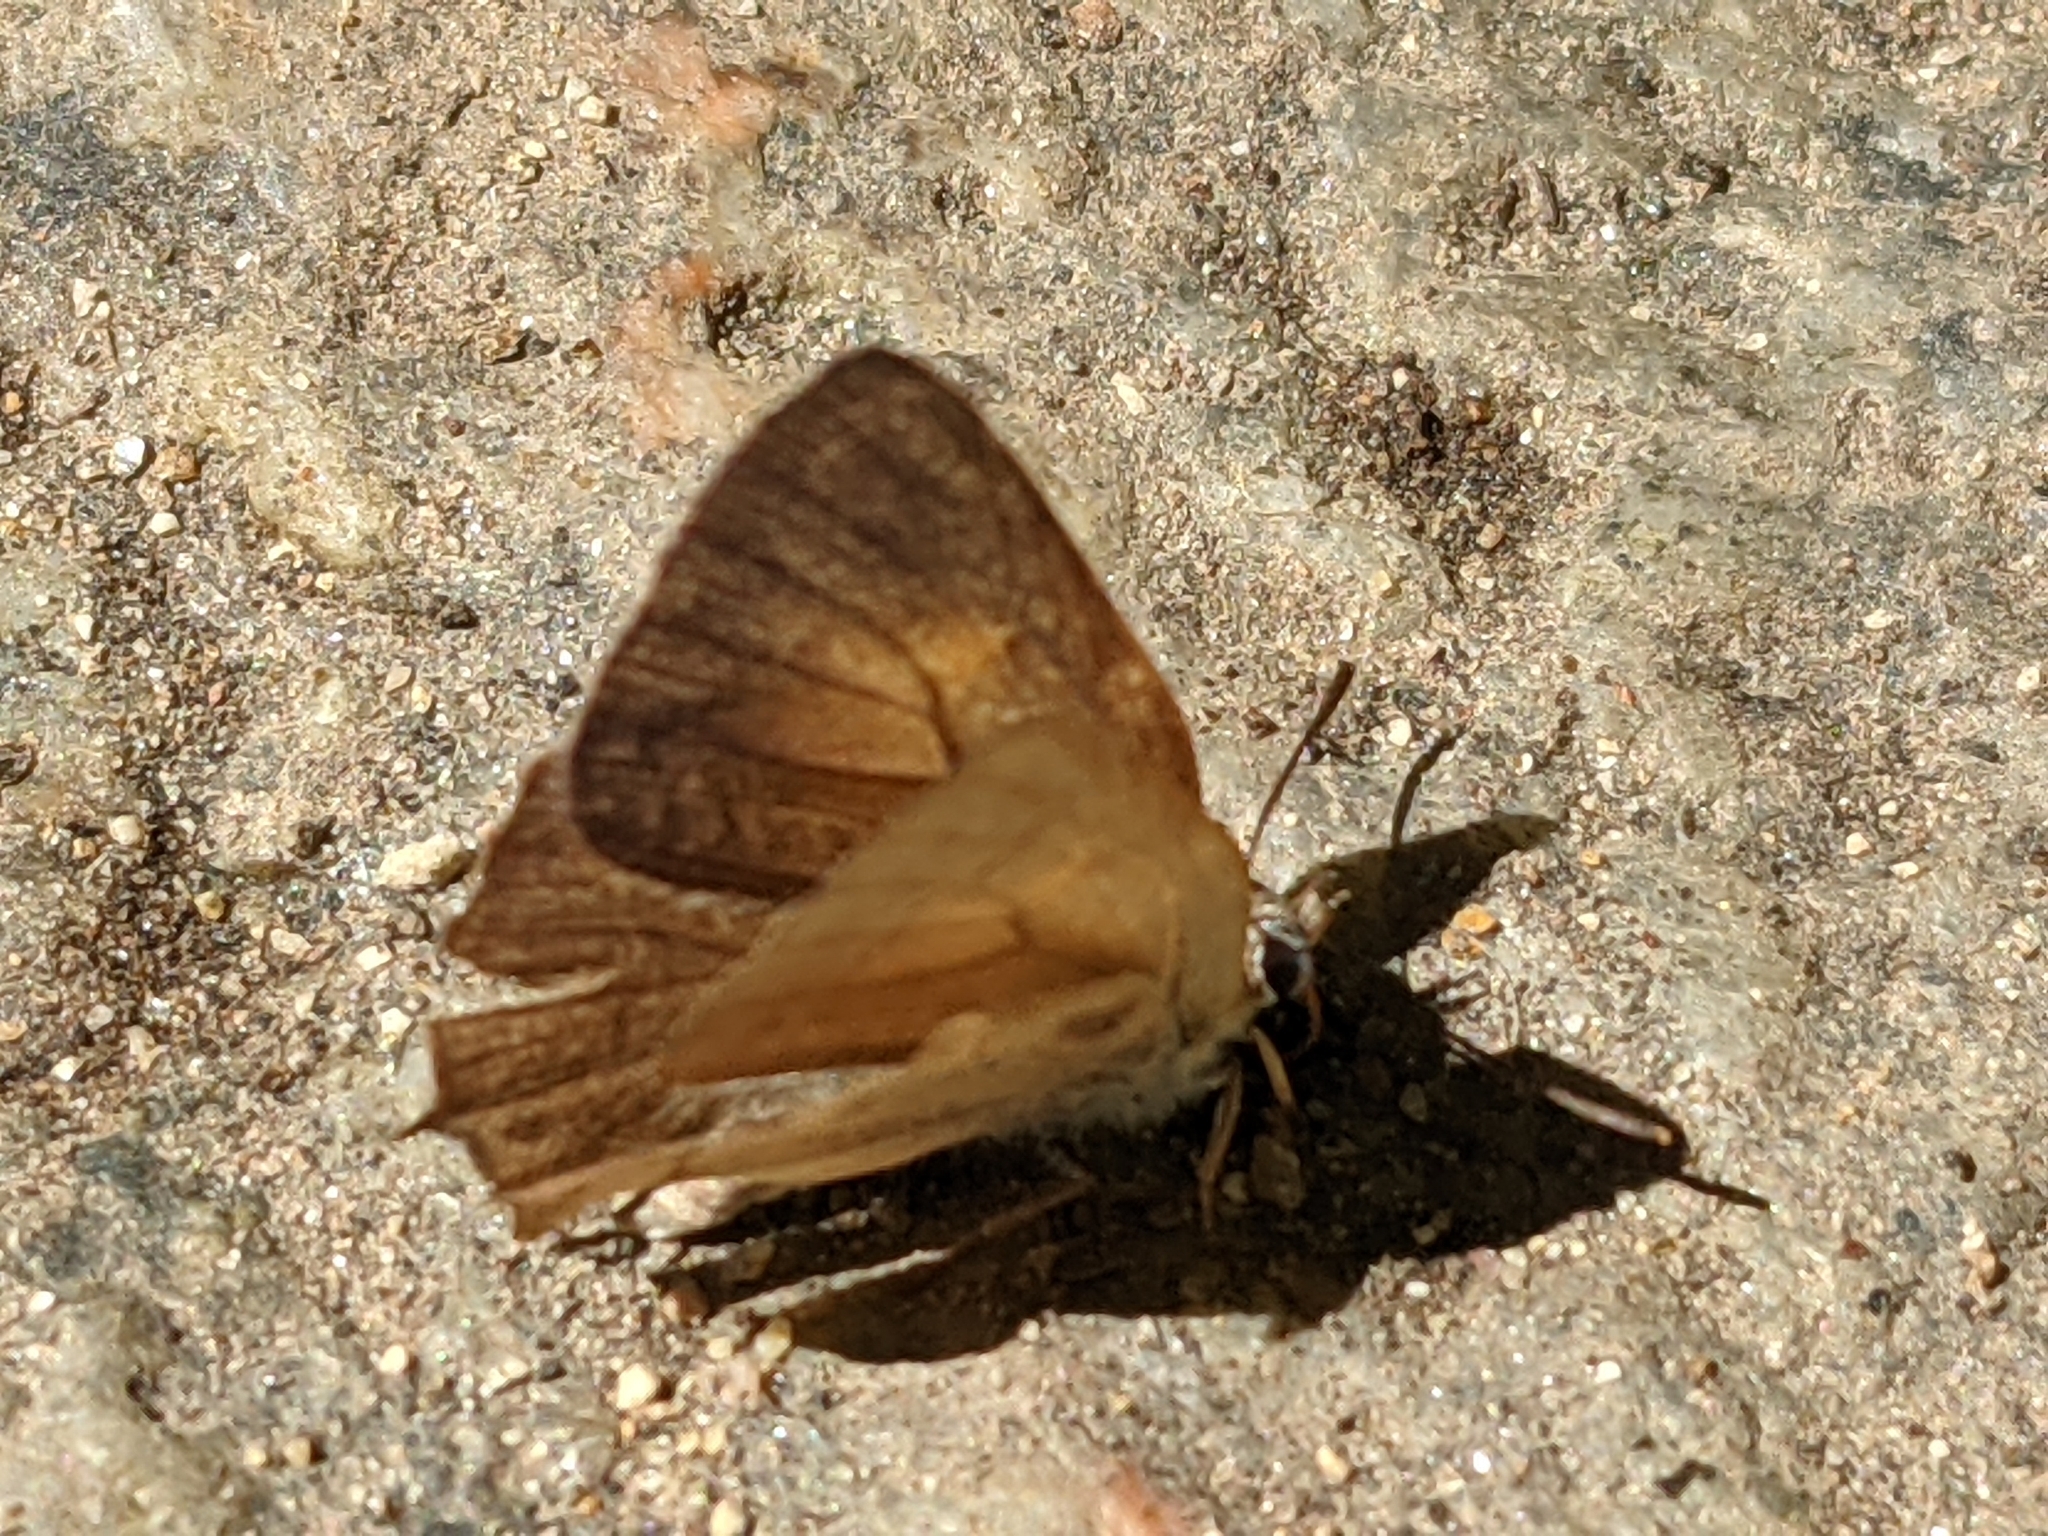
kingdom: Animalia
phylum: Arthropoda
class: Insecta
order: Lepidoptera
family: Lycaenidae
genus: Habrodais
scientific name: Habrodais grunus
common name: Golden hairstreak
